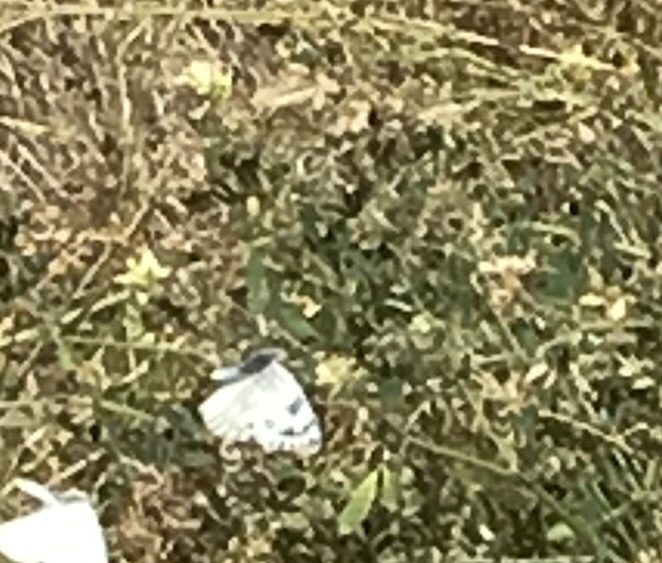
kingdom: Animalia
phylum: Arthropoda
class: Insecta
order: Lepidoptera
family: Pieridae
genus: Pontia
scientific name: Pontia occidentalis
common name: Western white
